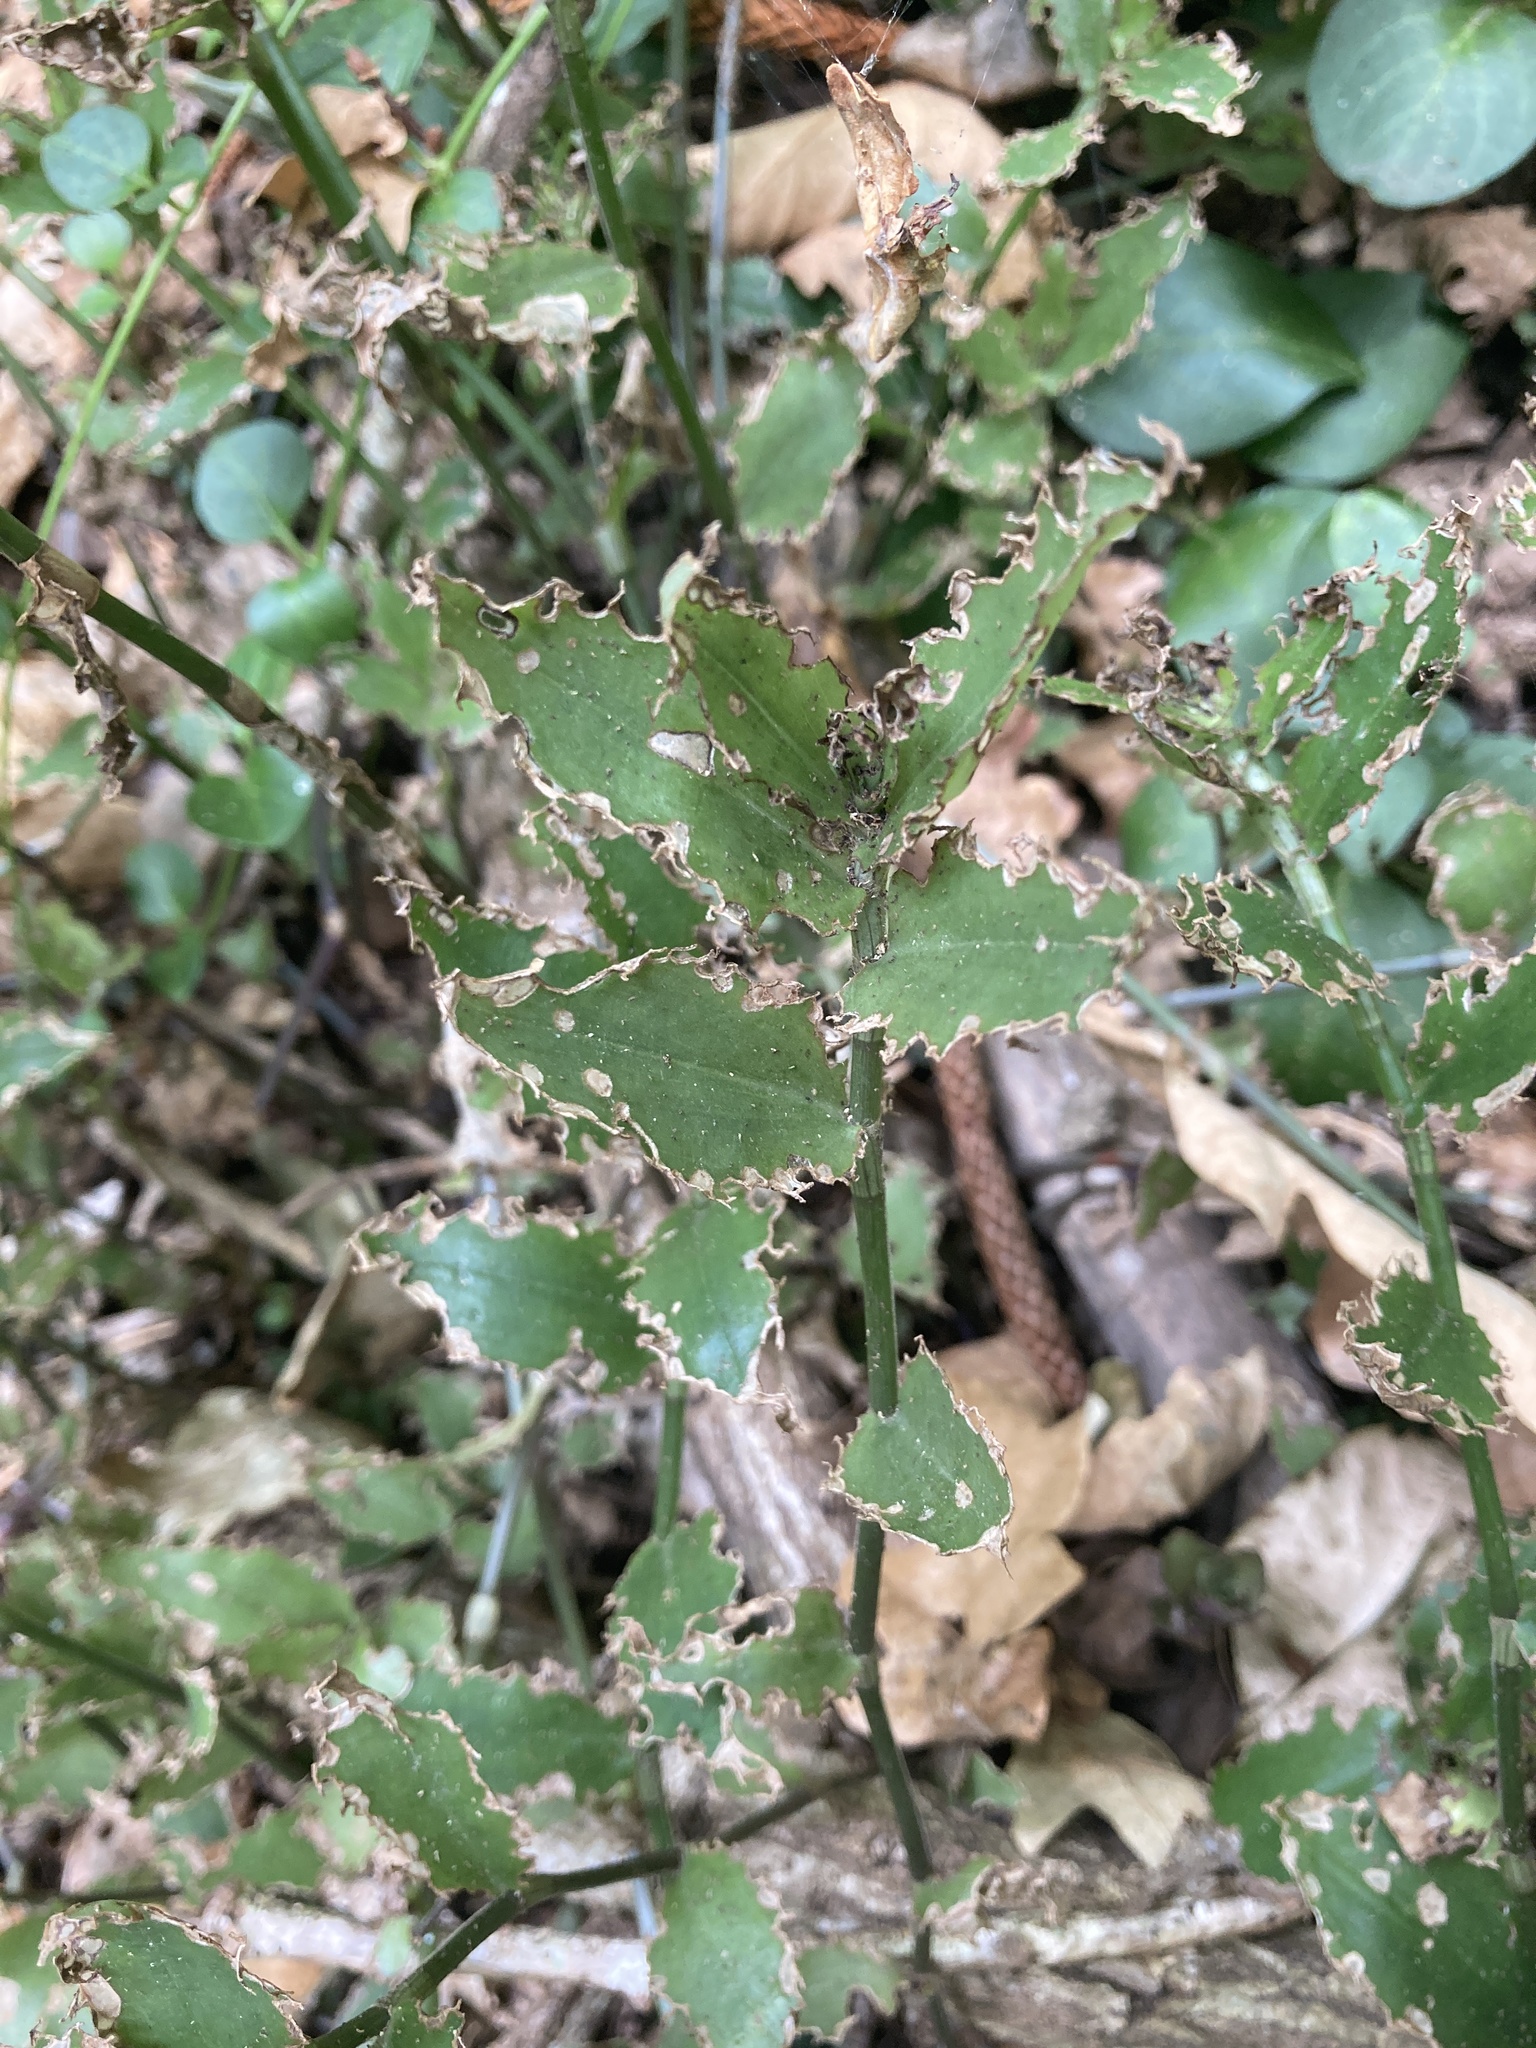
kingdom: Plantae
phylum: Tracheophyta
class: Liliopsida
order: Commelinales
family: Commelinaceae
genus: Tradescantia
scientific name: Tradescantia fluminensis
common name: Wandering-jew
